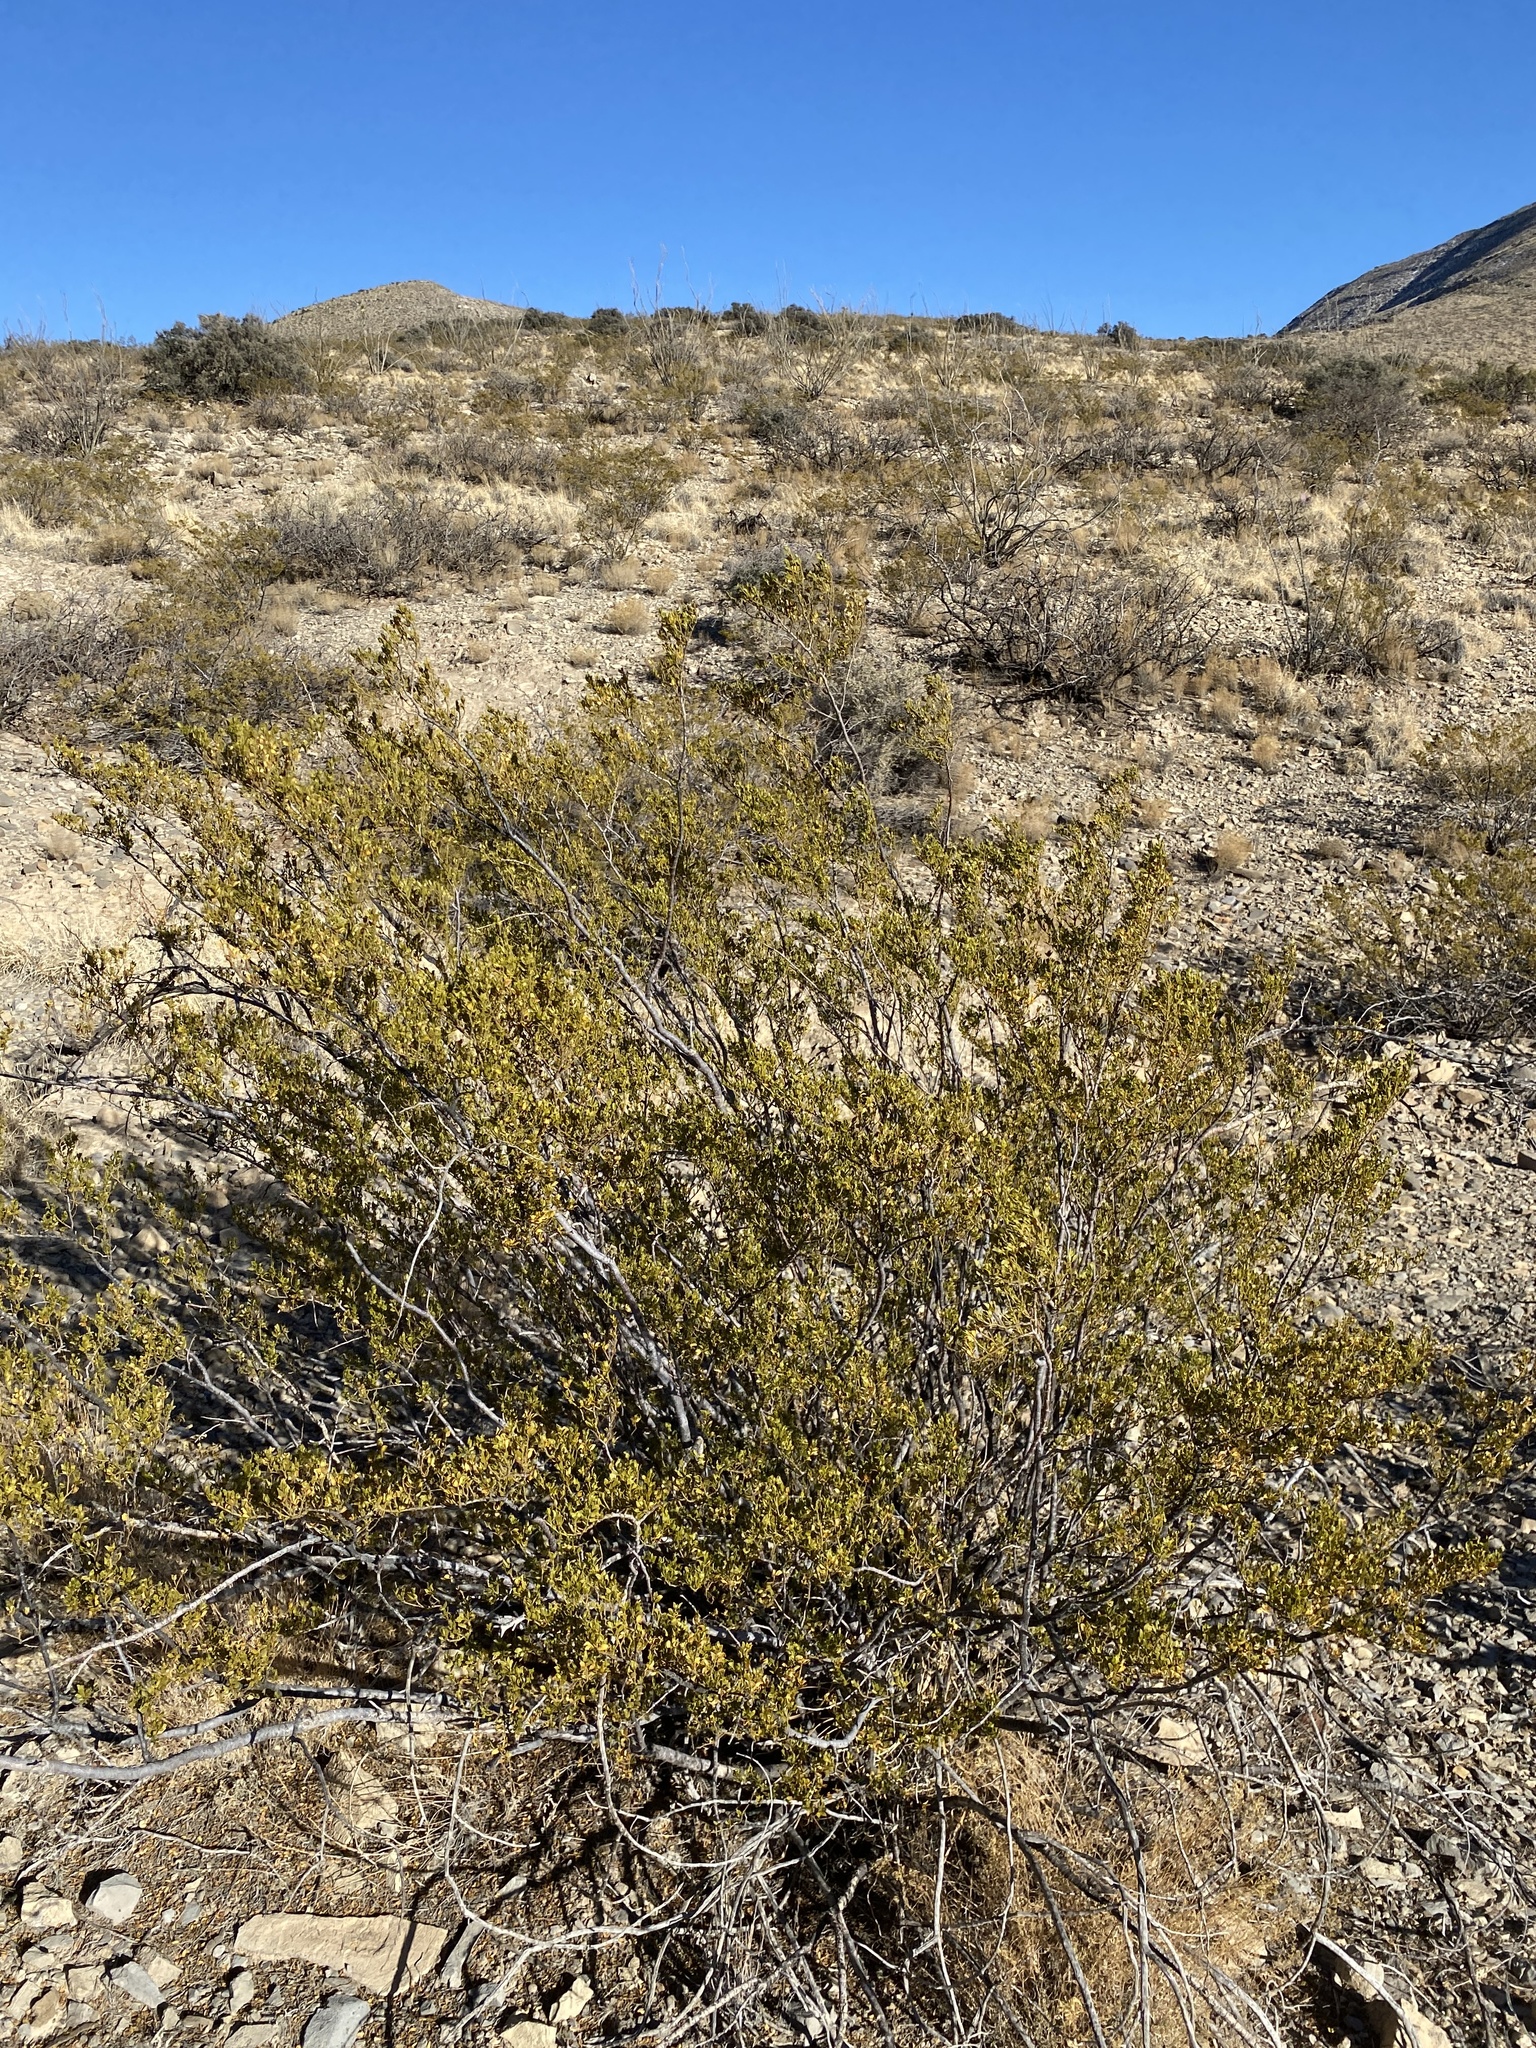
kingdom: Plantae
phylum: Tracheophyta
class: Magnoliopsida
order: Zygophyllales
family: Zygophyllaceae
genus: Larrea
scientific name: Larrea tridentata
